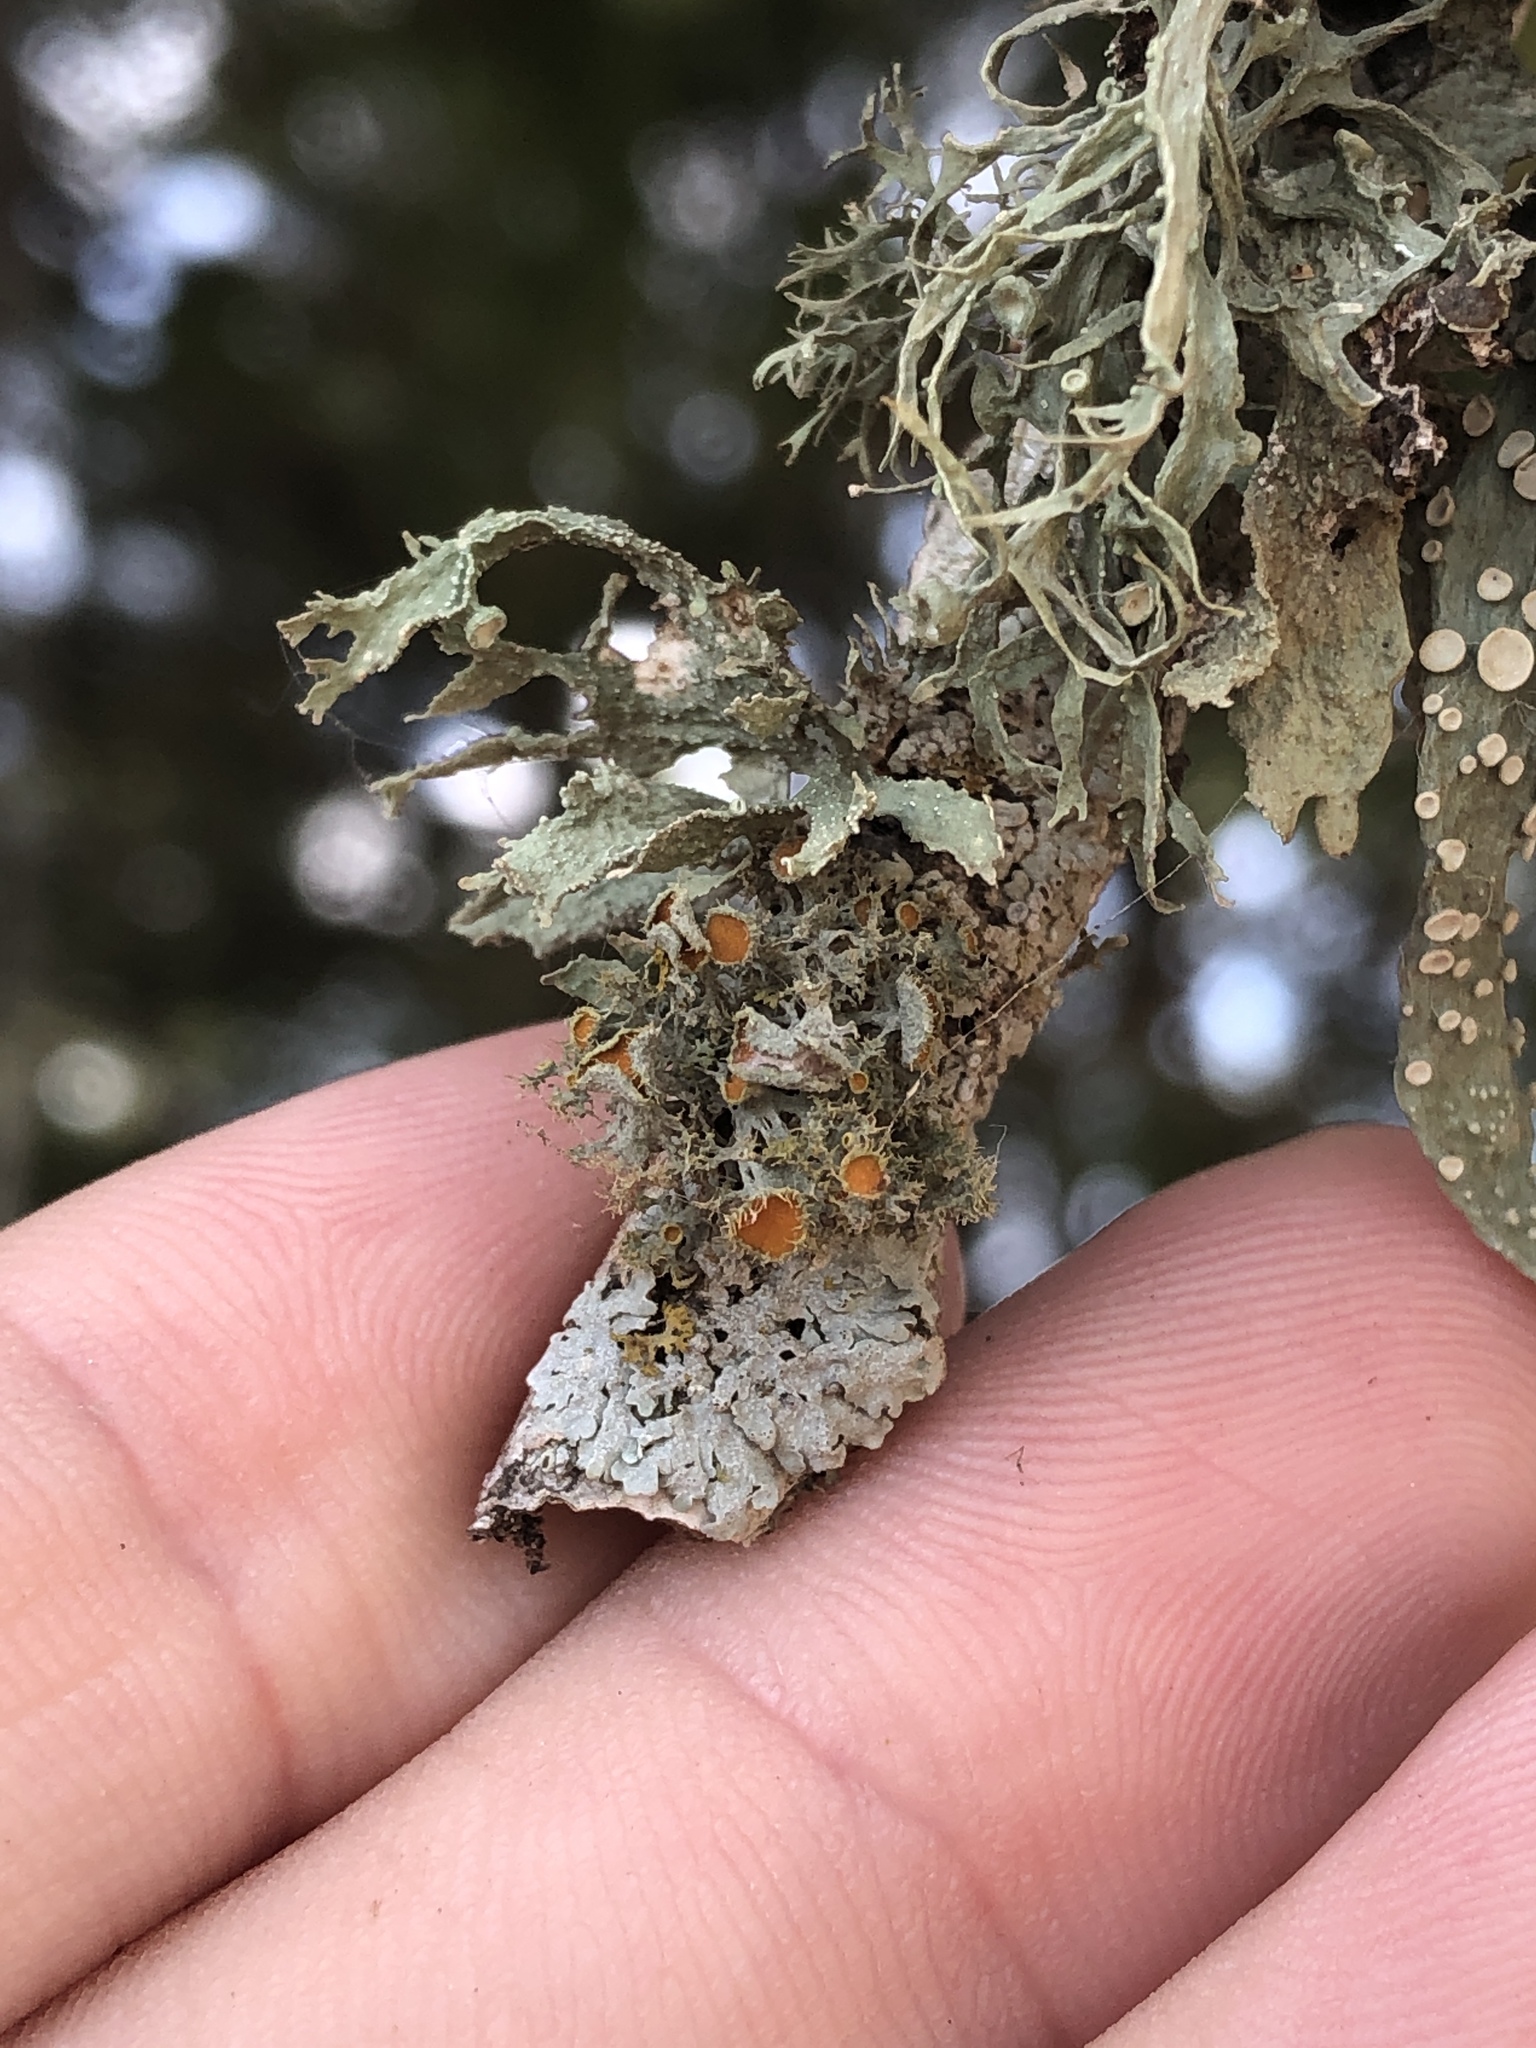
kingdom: Fungi
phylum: Ascomycota
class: Lecanoromycetes
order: Teloschistales
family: Teloschistaceae
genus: Niorma
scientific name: Niorma chrysophthalma
